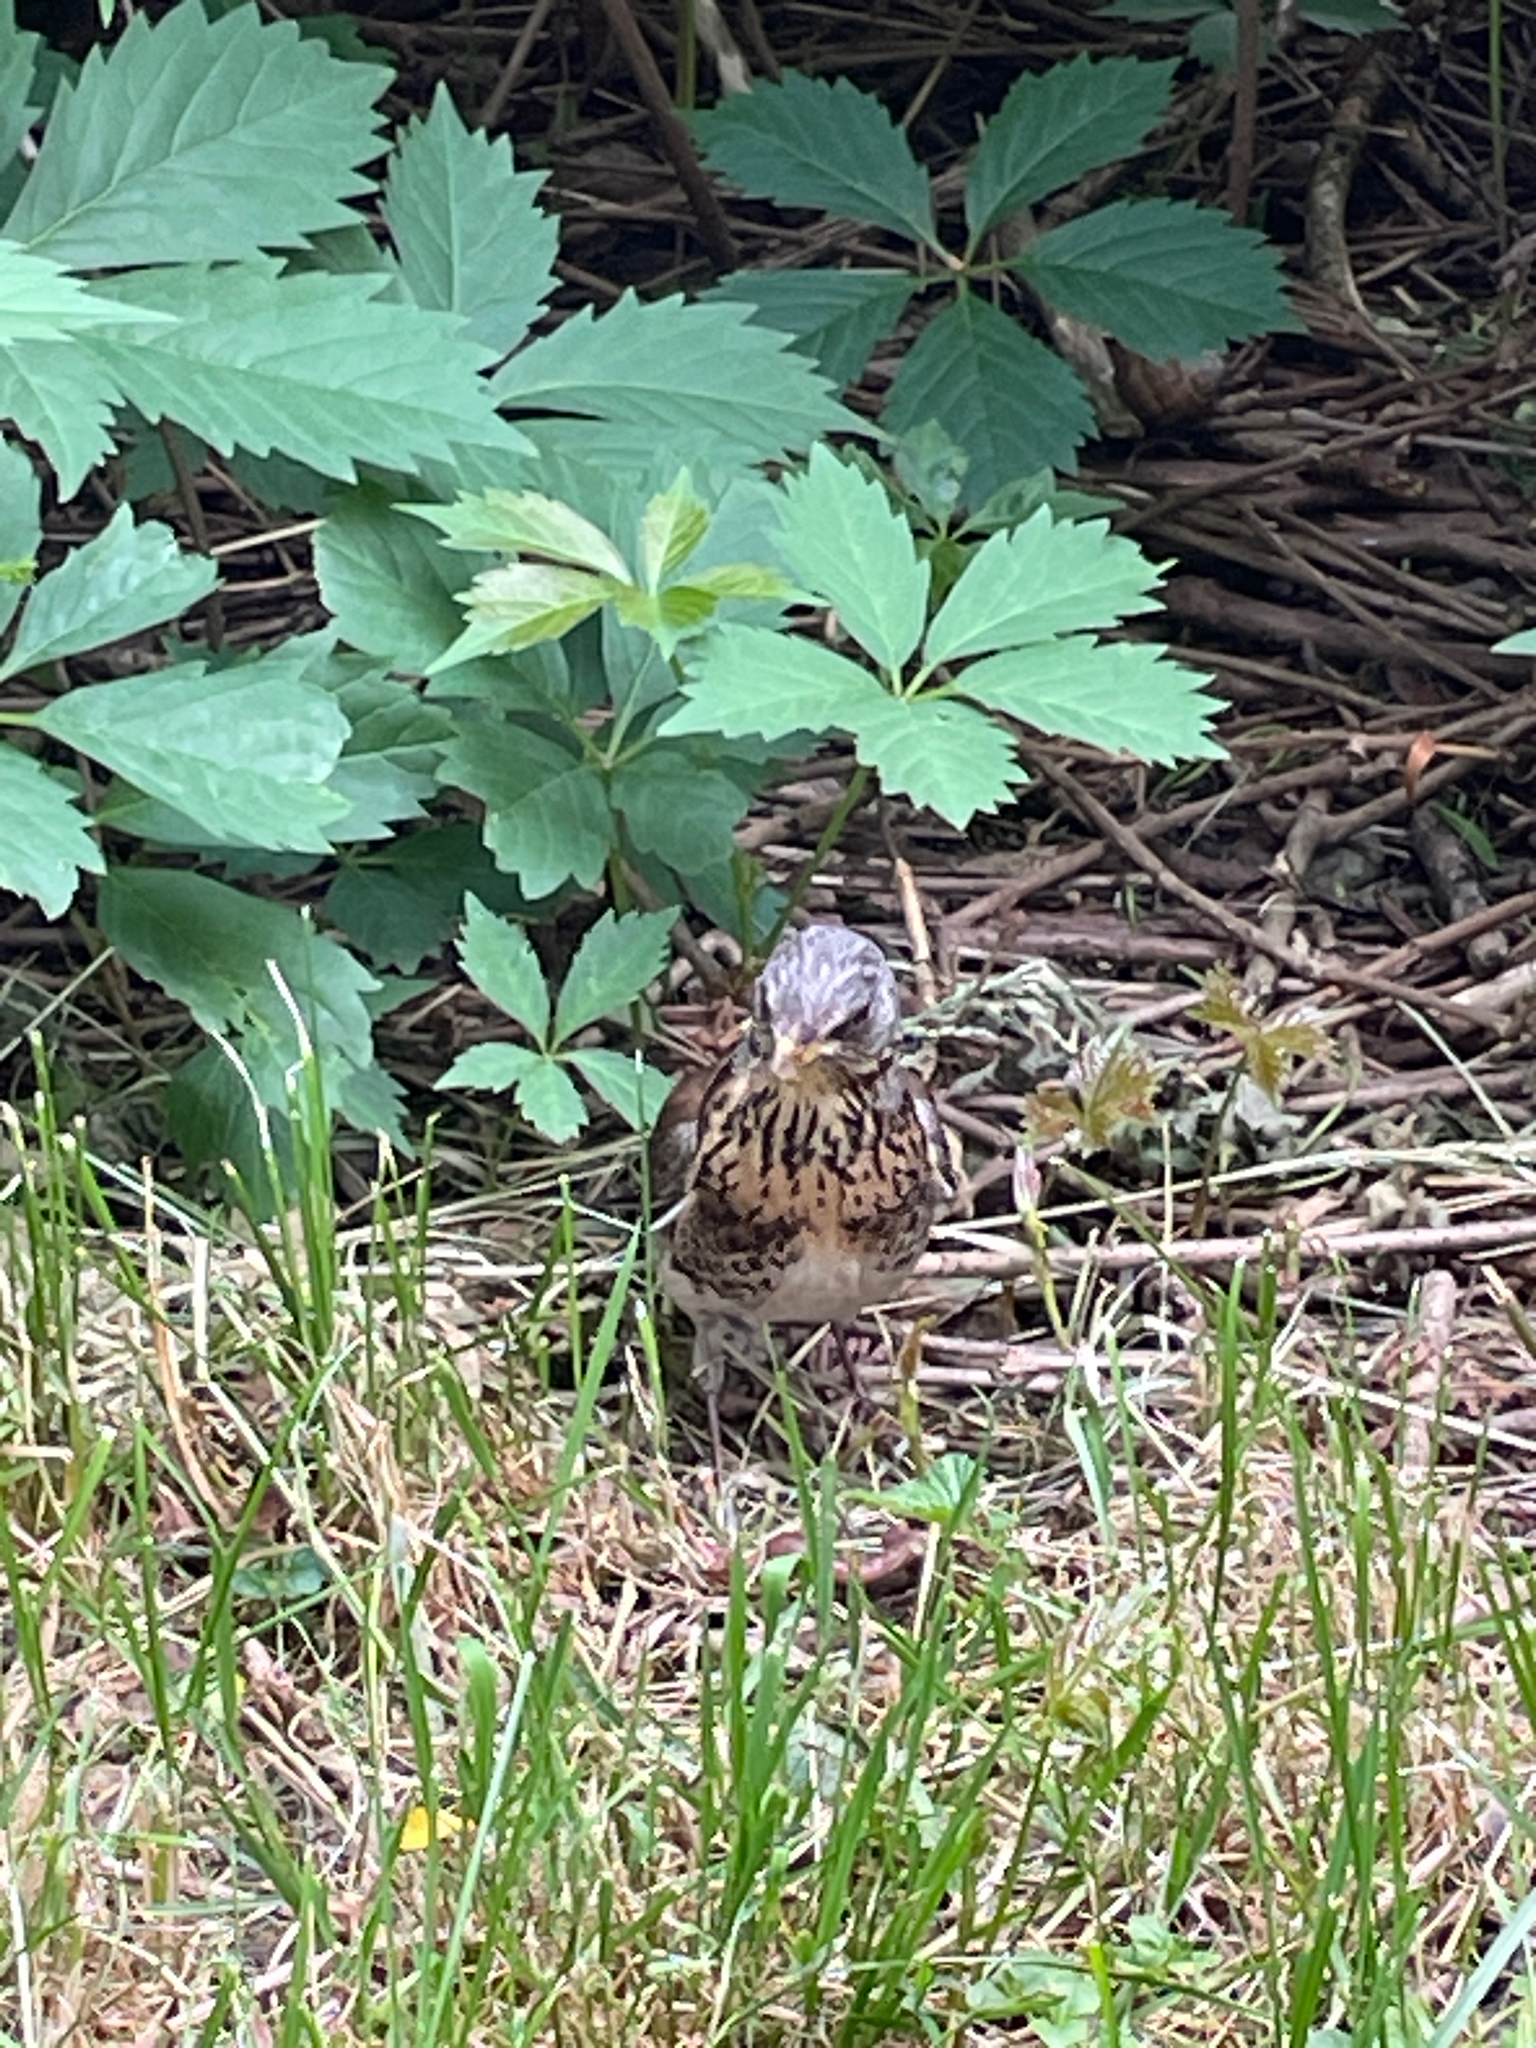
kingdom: Animalia
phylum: Chordata
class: Aves
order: Passeriformes
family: Turdidae
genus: Turdus
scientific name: Turdus pilaris
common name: Fieldfare
